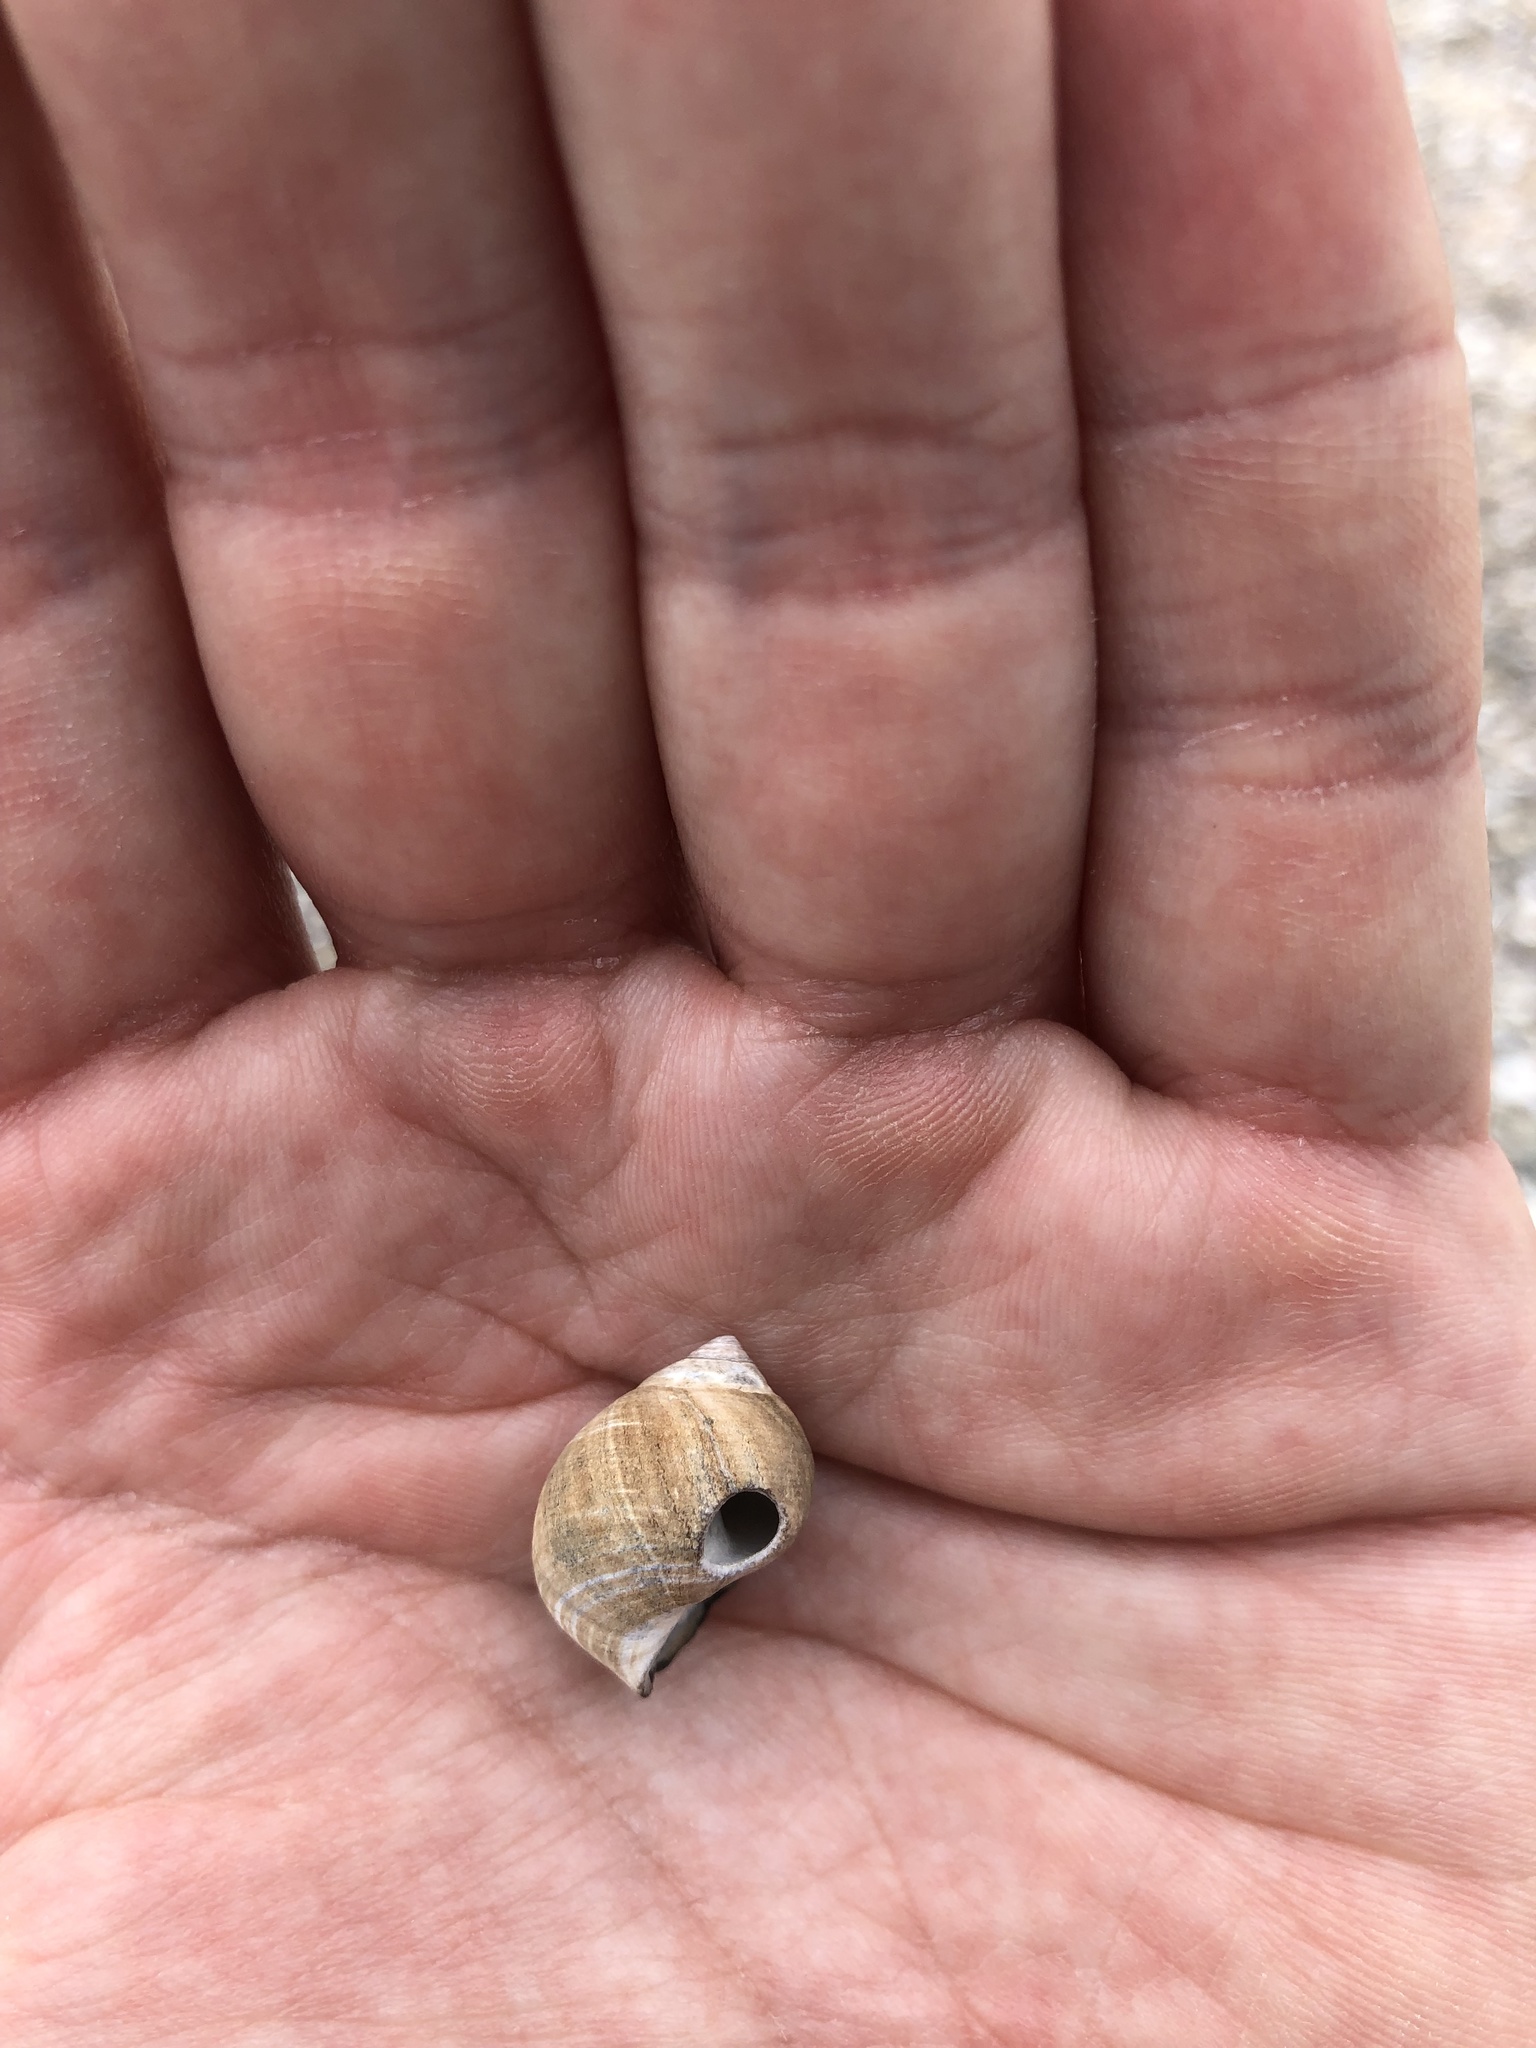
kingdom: Animalia
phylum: Mollusca
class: Gastropoda
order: Littorinimorpha
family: Littorinidae
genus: Littorina
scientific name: Littorina littorea
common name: Common periwinkle
